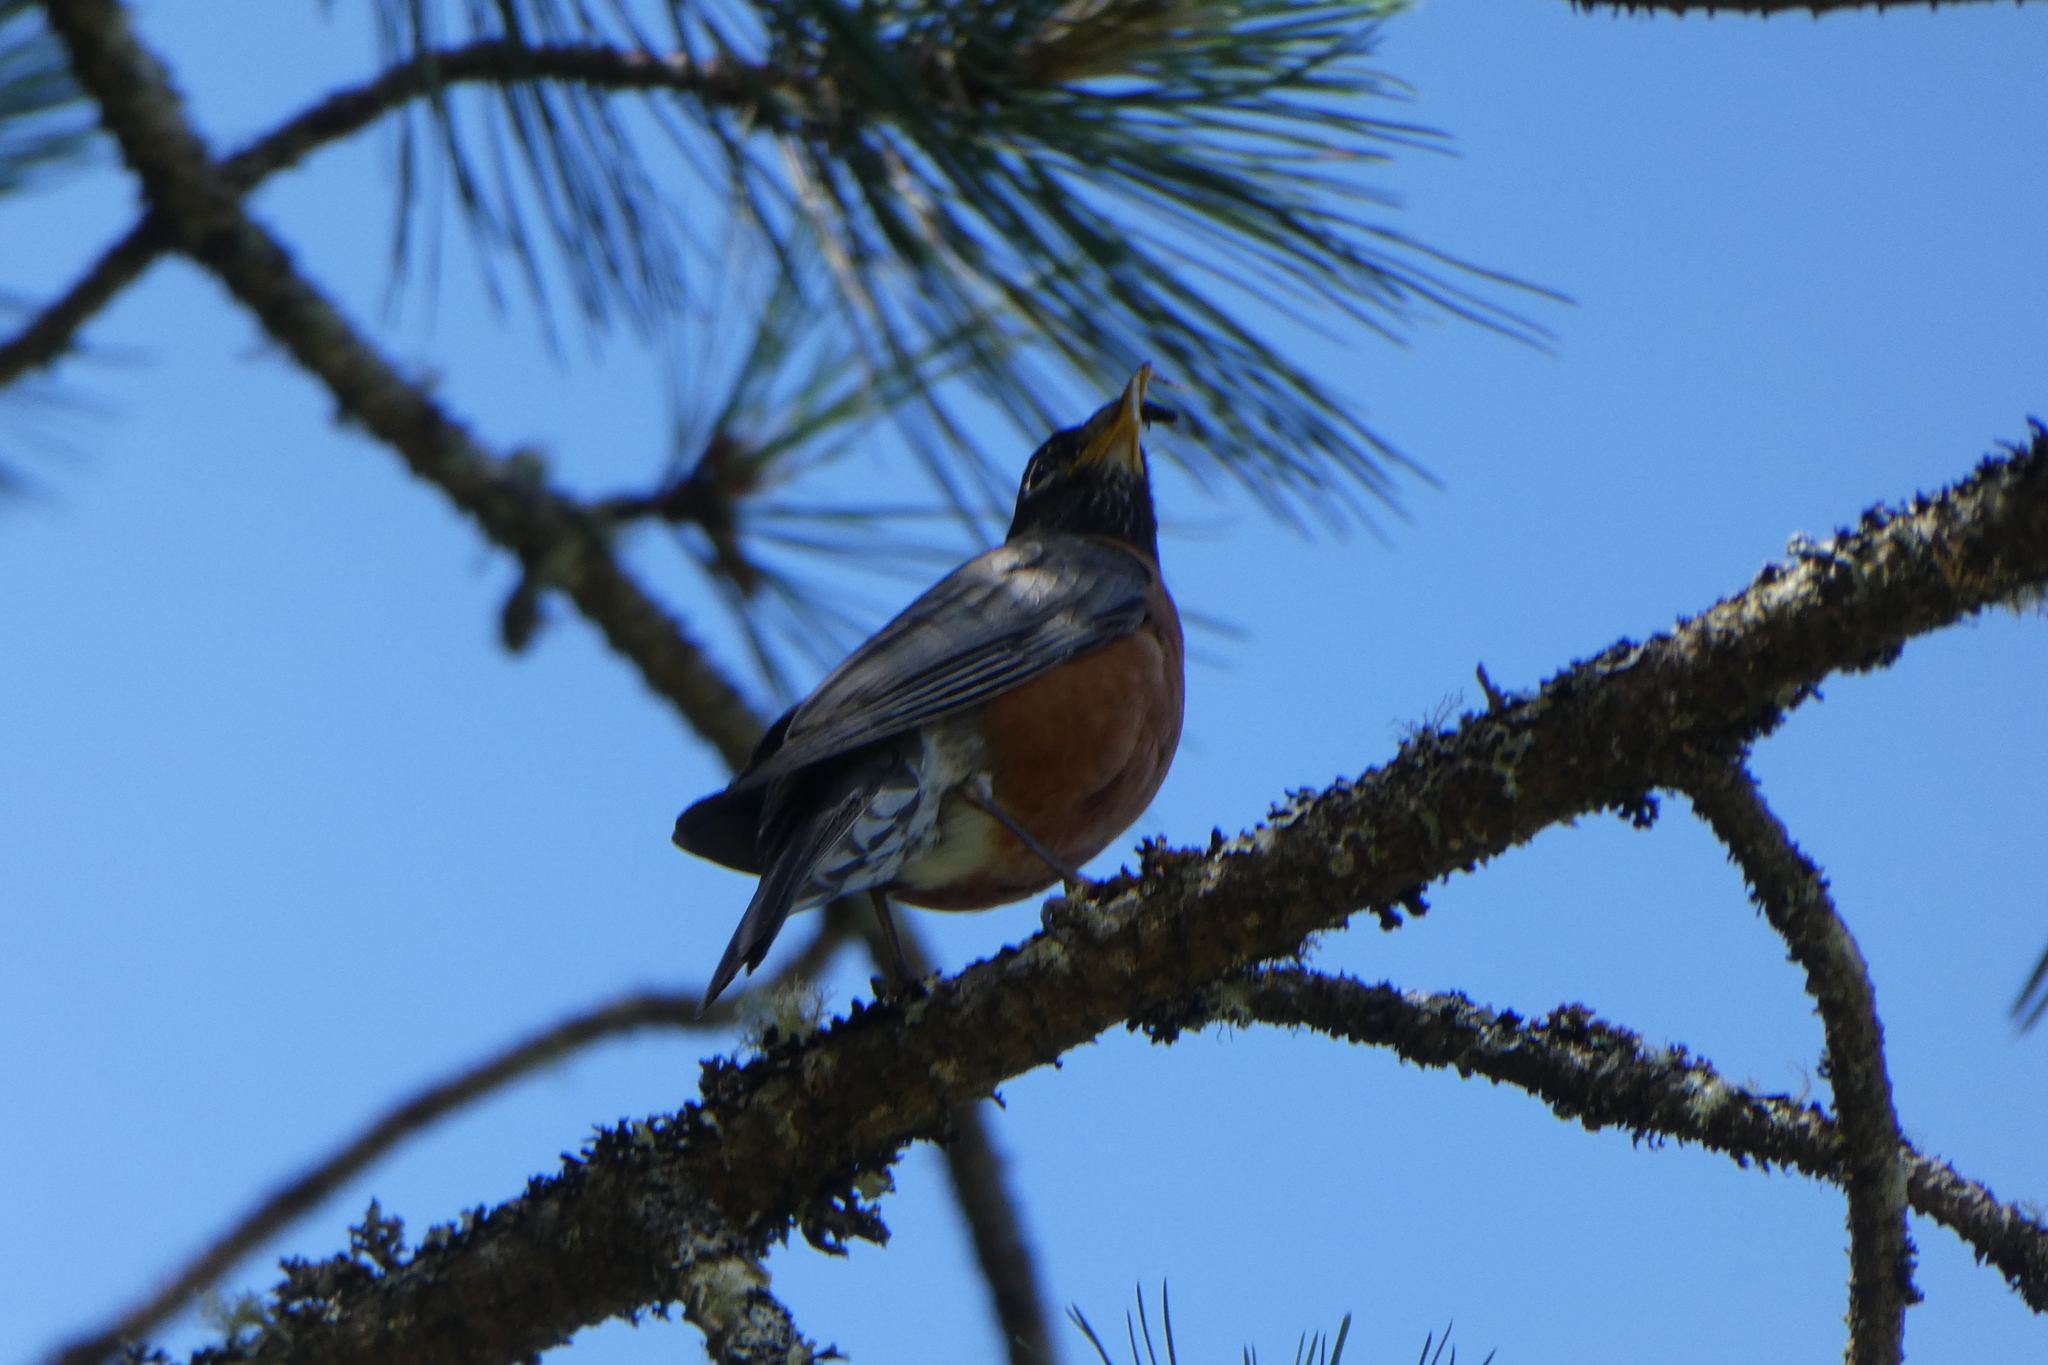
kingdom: Animalia
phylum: Chordata
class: Aves
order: Passeriformes
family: Turdidae
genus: Turdus
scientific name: Turdus migratorius
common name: American robin
